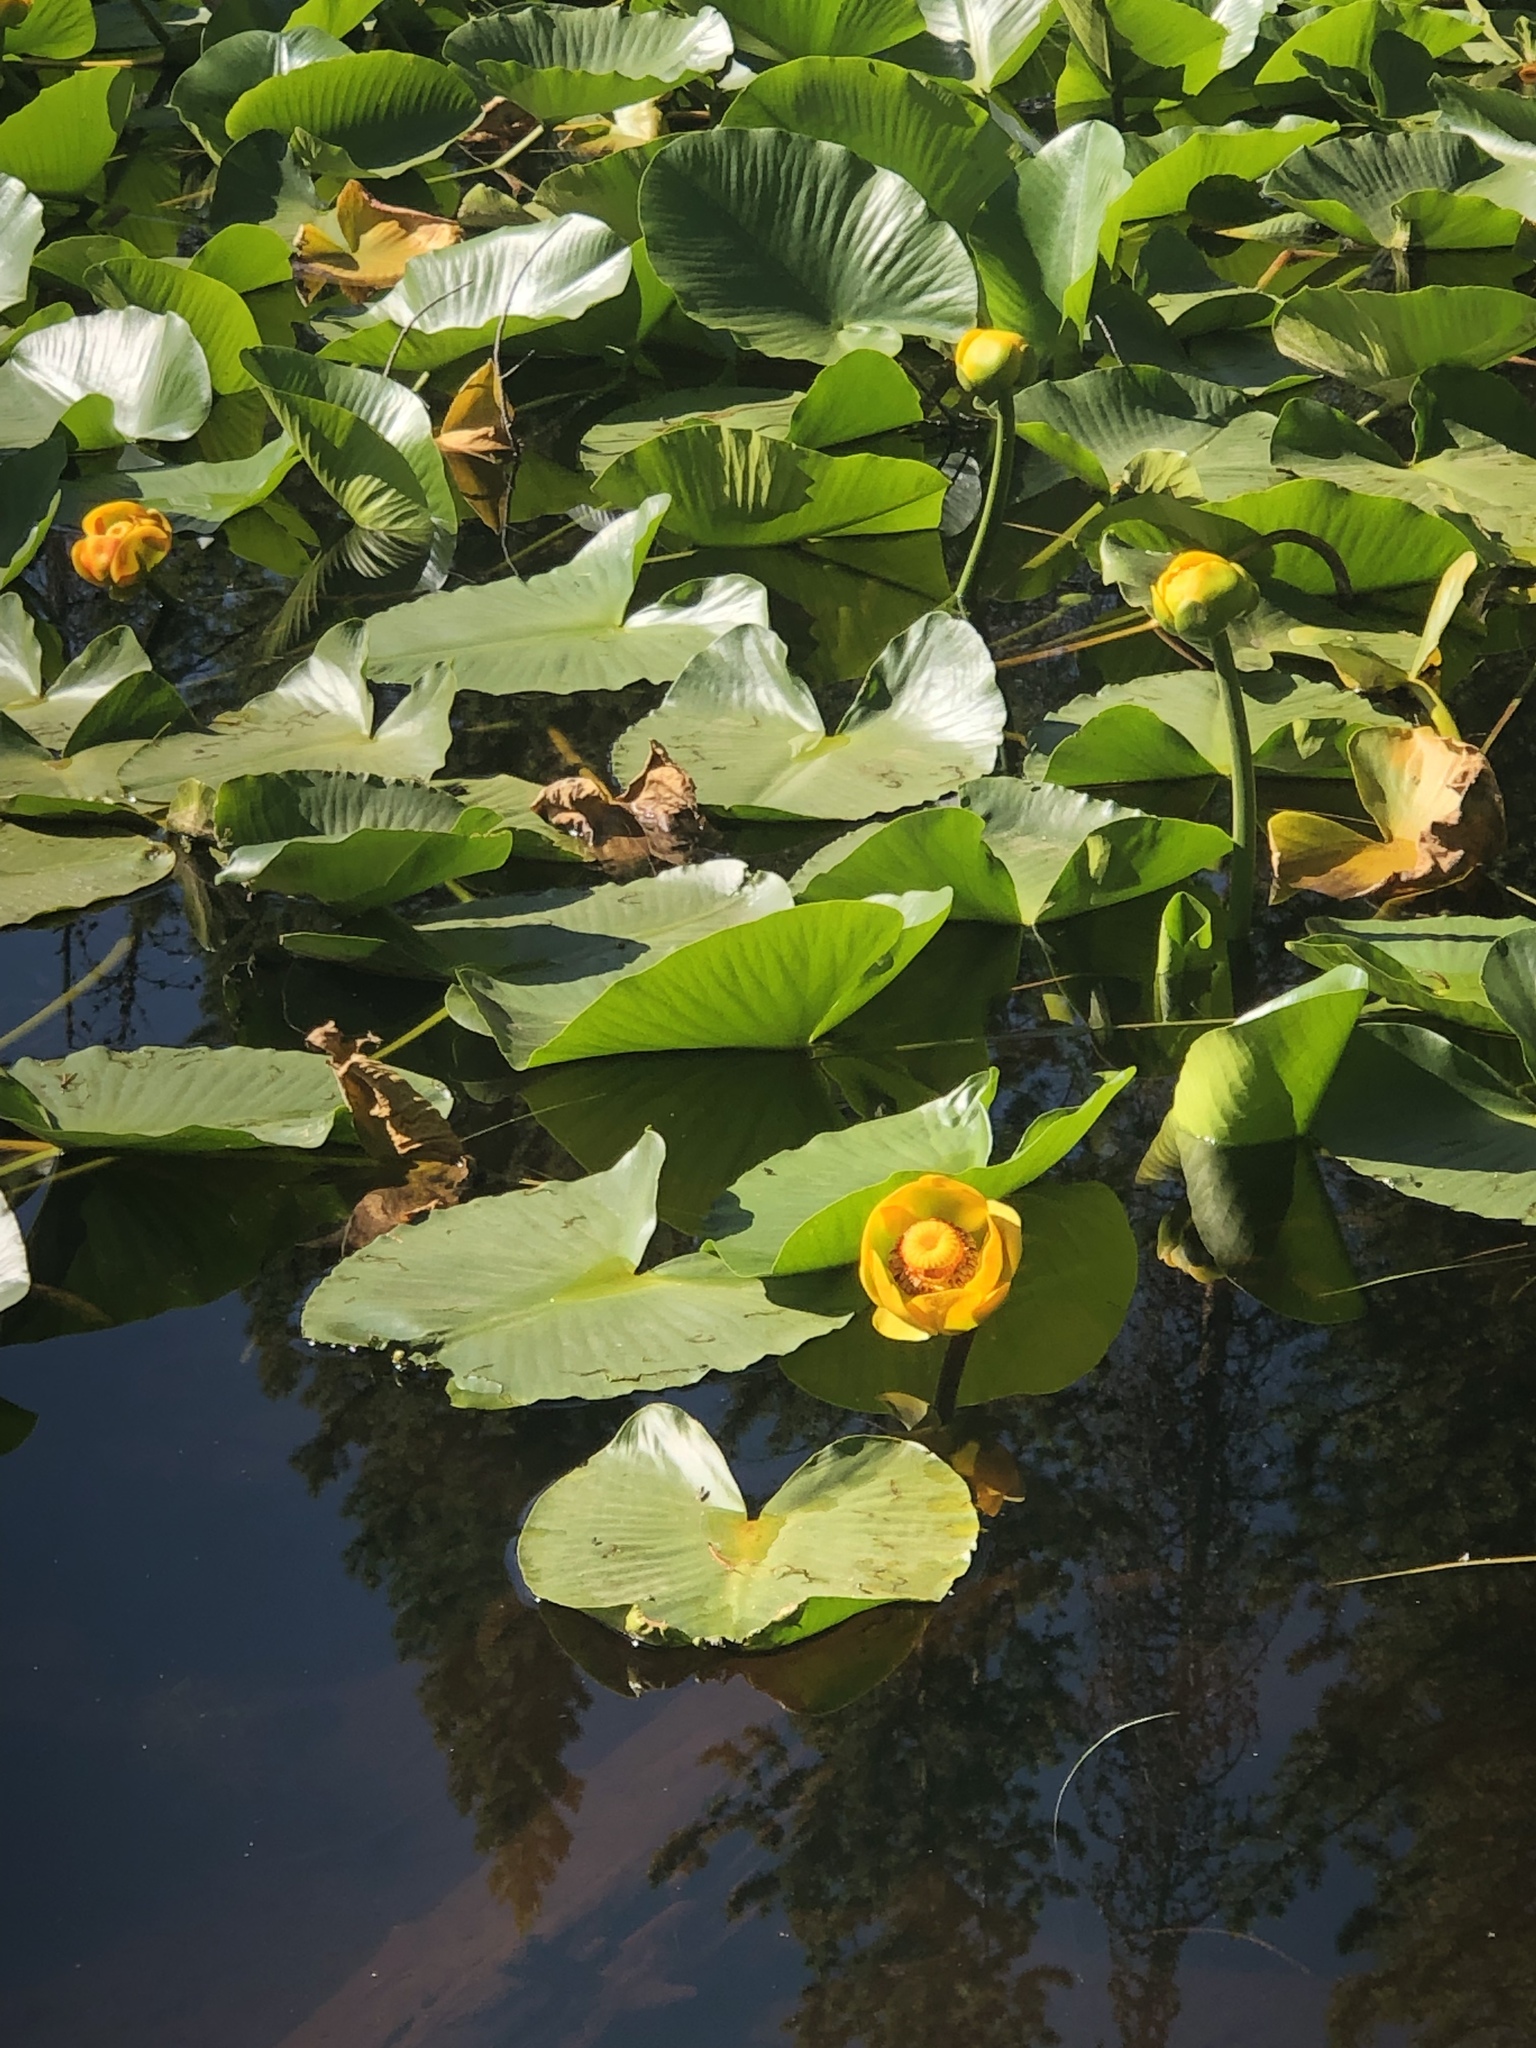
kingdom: Plantae
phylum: Tracheophyta
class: Magnoliopsida
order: Nymphaeales
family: Nymphaeaceae
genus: Nuphar
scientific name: Nuphar polysepala
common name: Rocky mountain cow-lily
